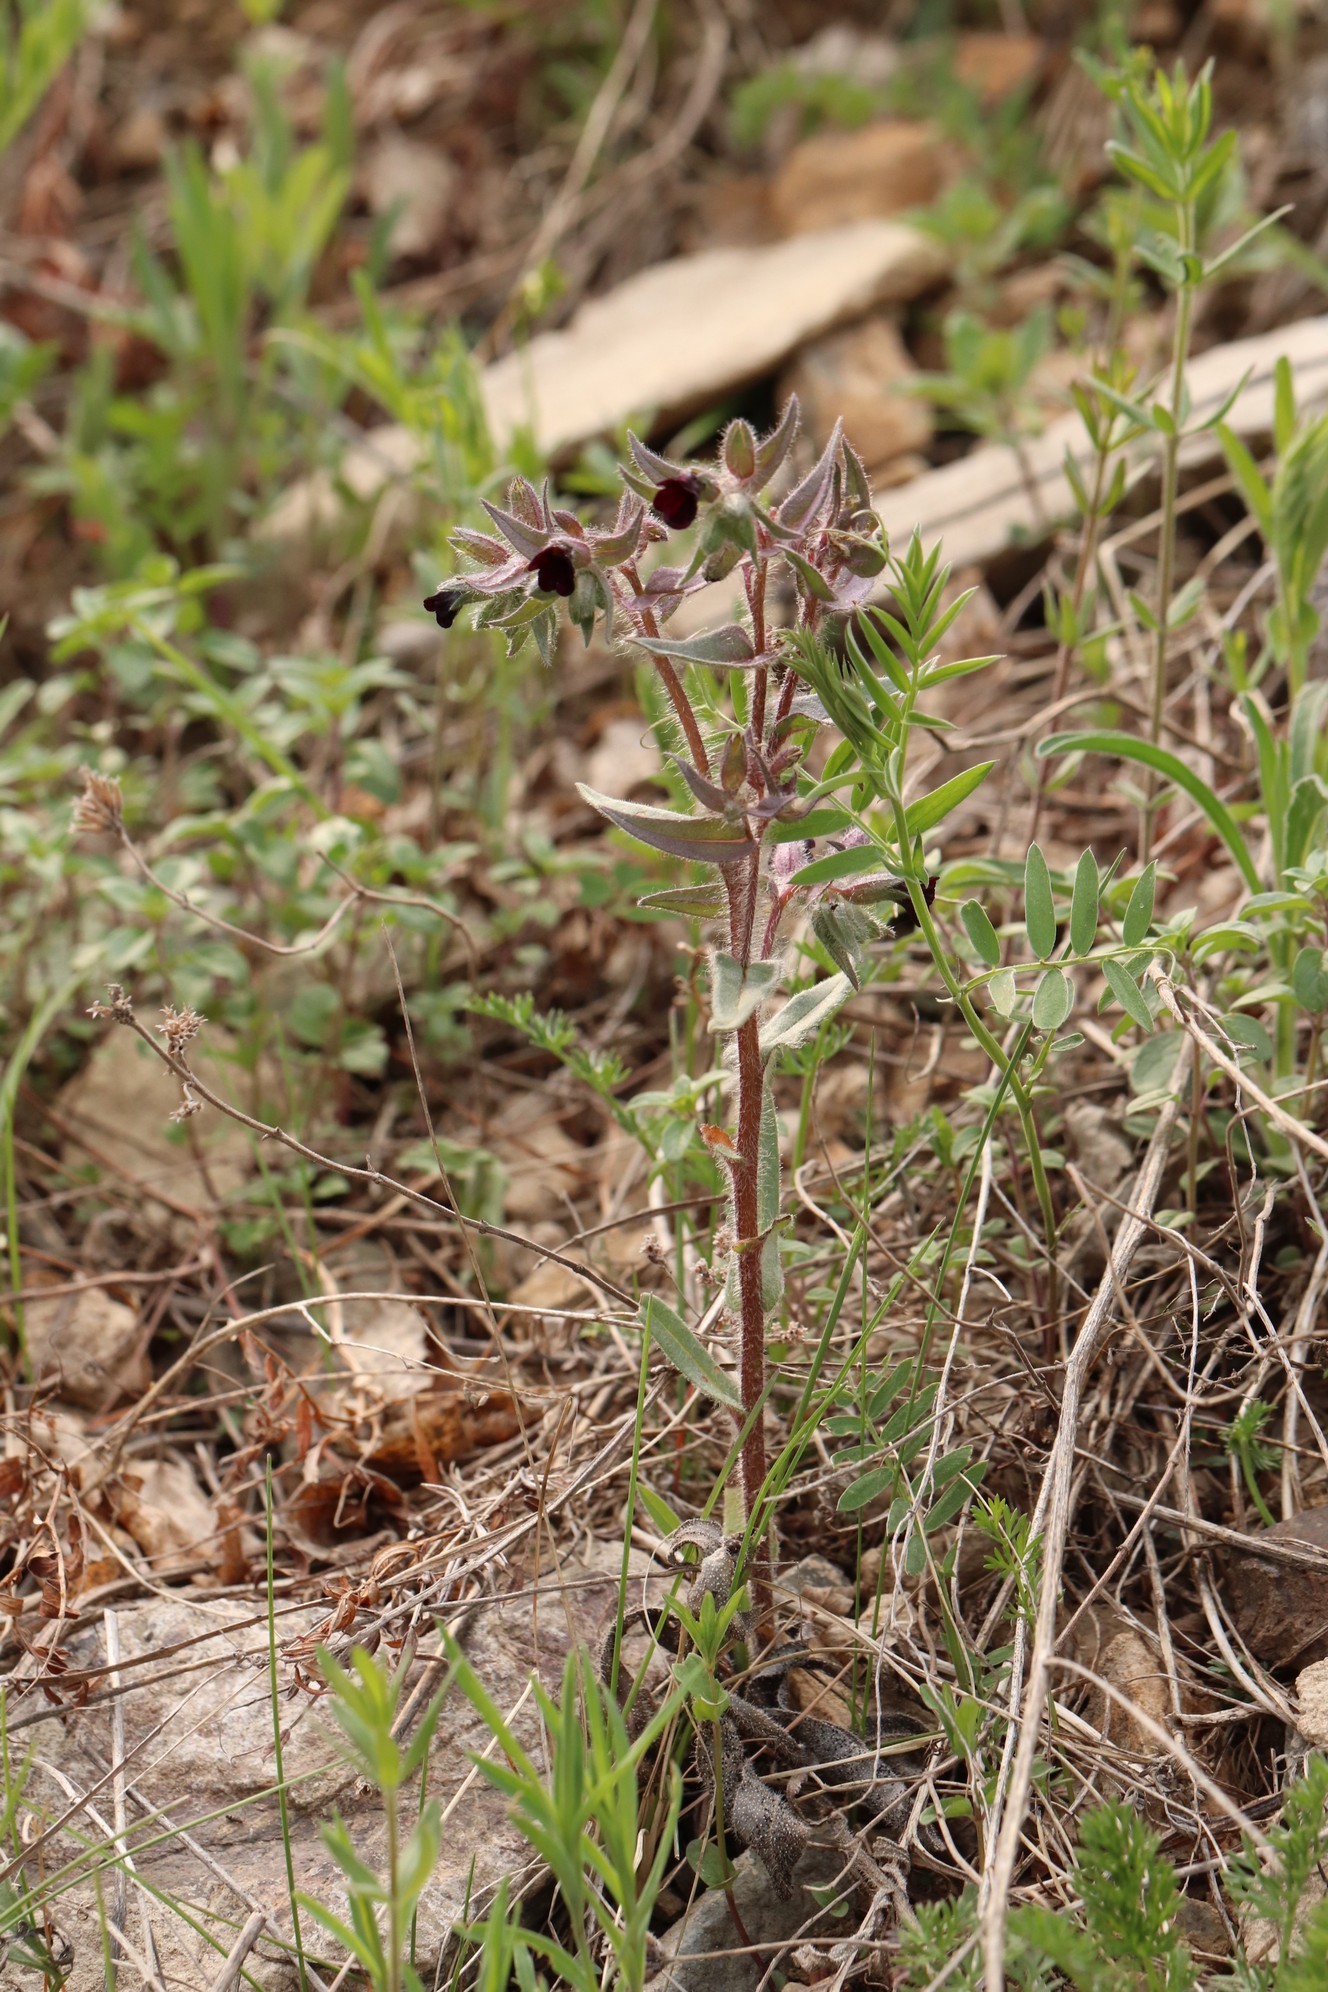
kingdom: Plantae
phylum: Tracheophyta
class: Magnoliopsida
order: Boraginales
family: Boraginaceae
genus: Nonea
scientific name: Nonea pulla
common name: Brown nonea
